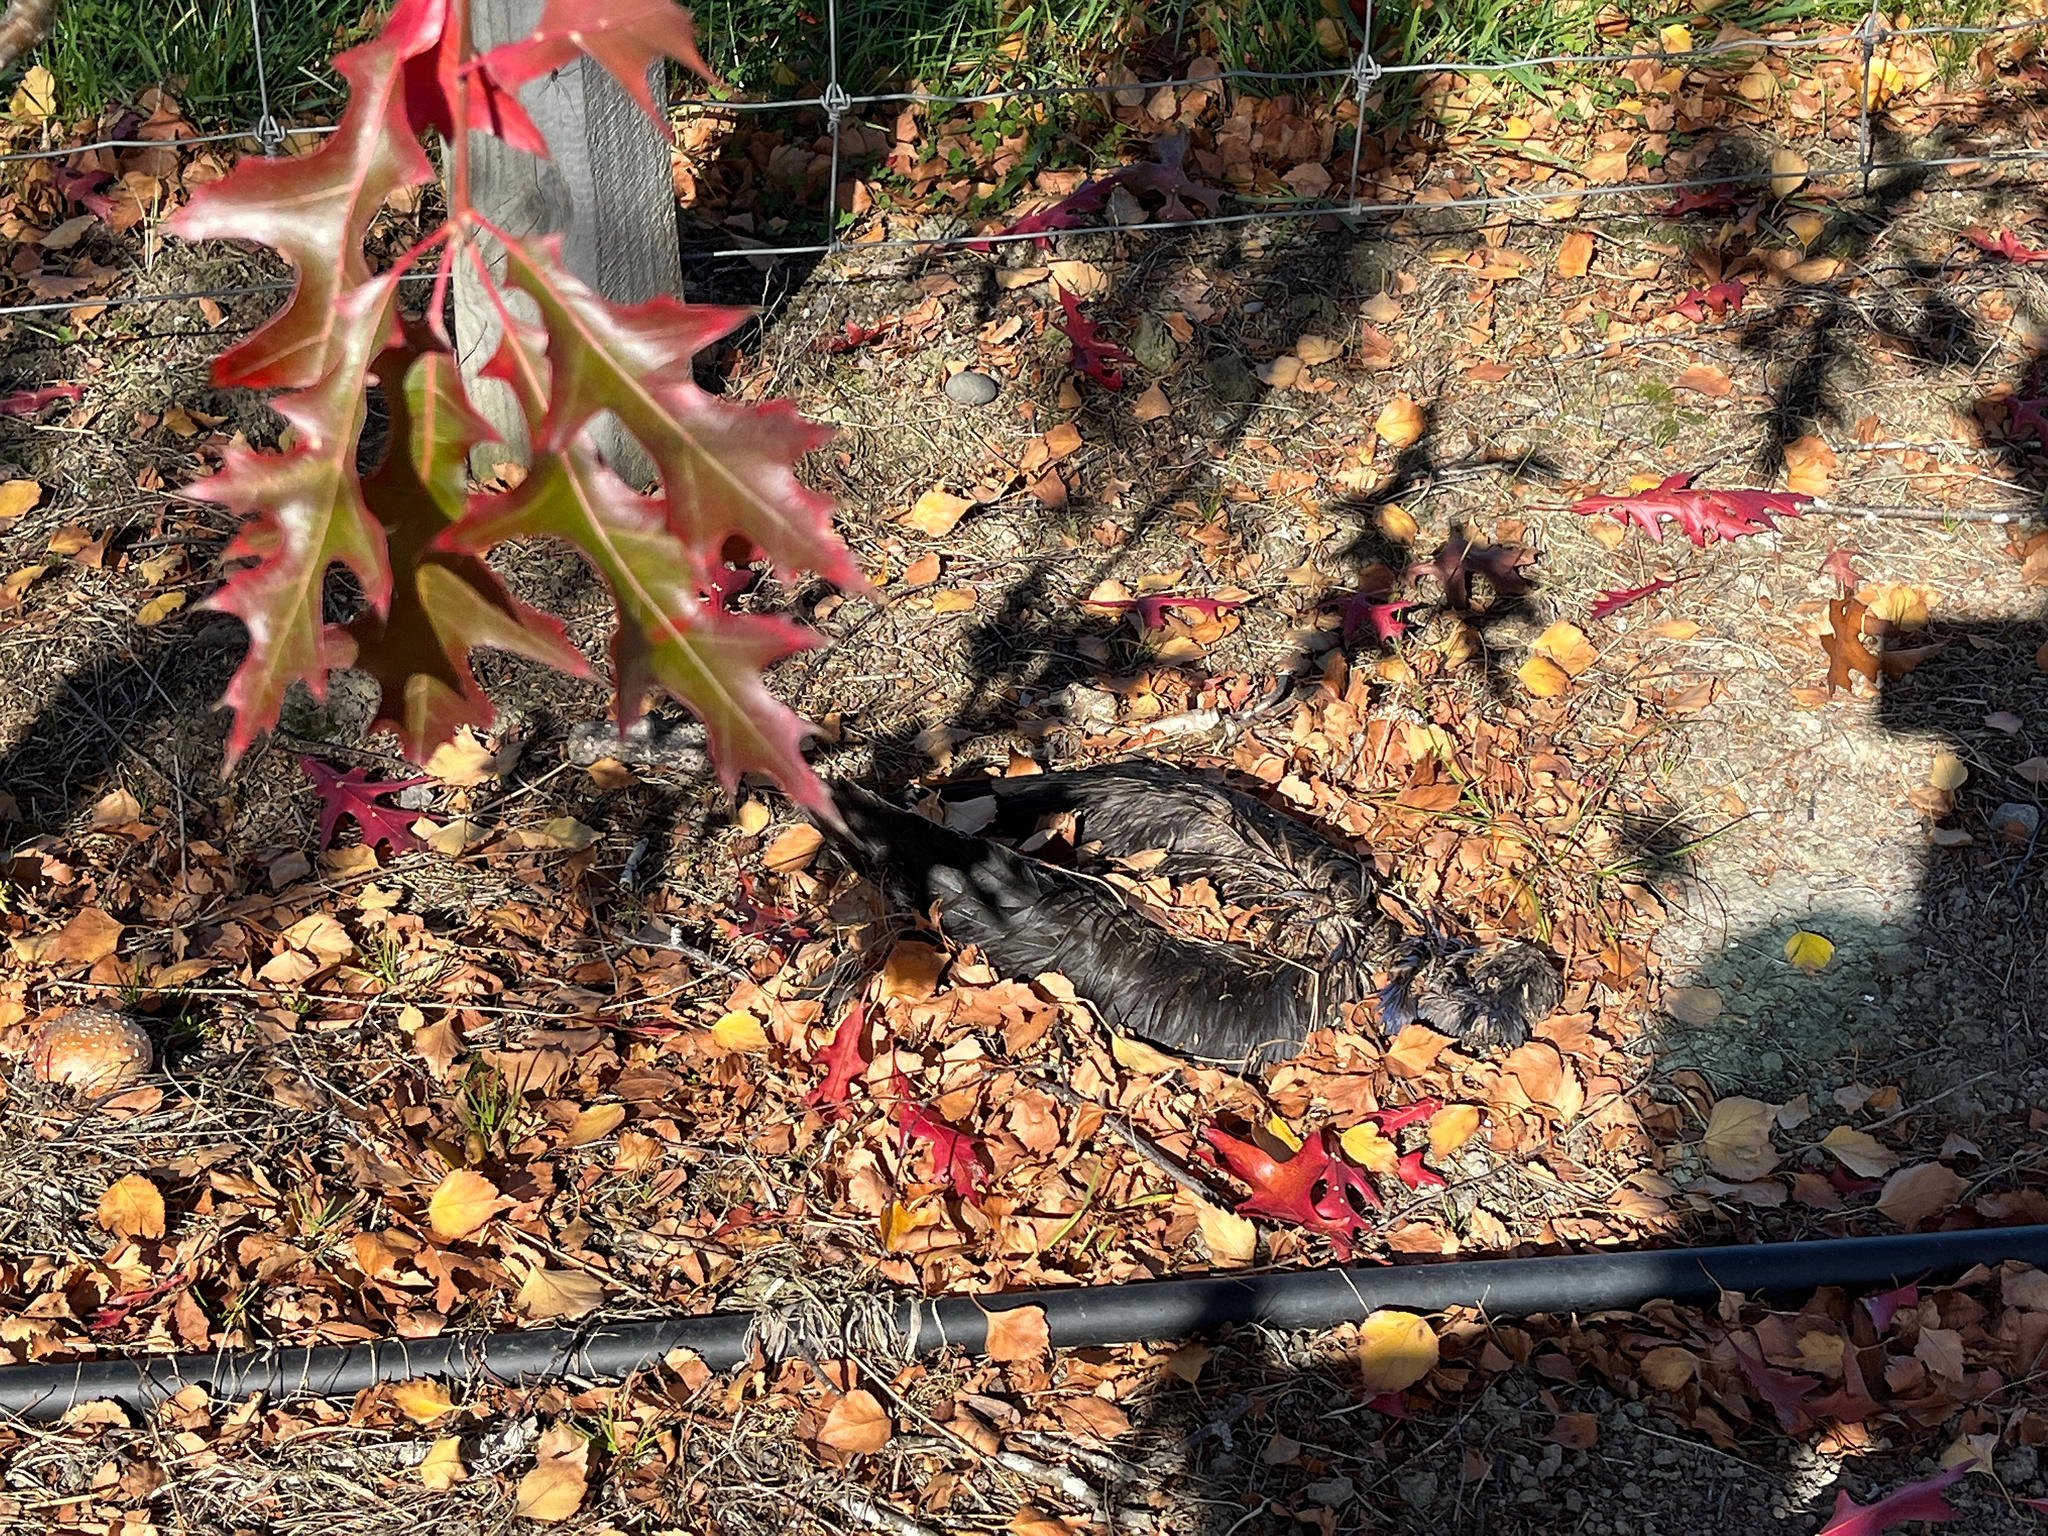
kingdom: Animalia
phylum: Chordata
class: Aves
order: Gruiformes
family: Rallidae
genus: Porphyrio
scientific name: Porphyrio melanotus
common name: Australasian swamphen
